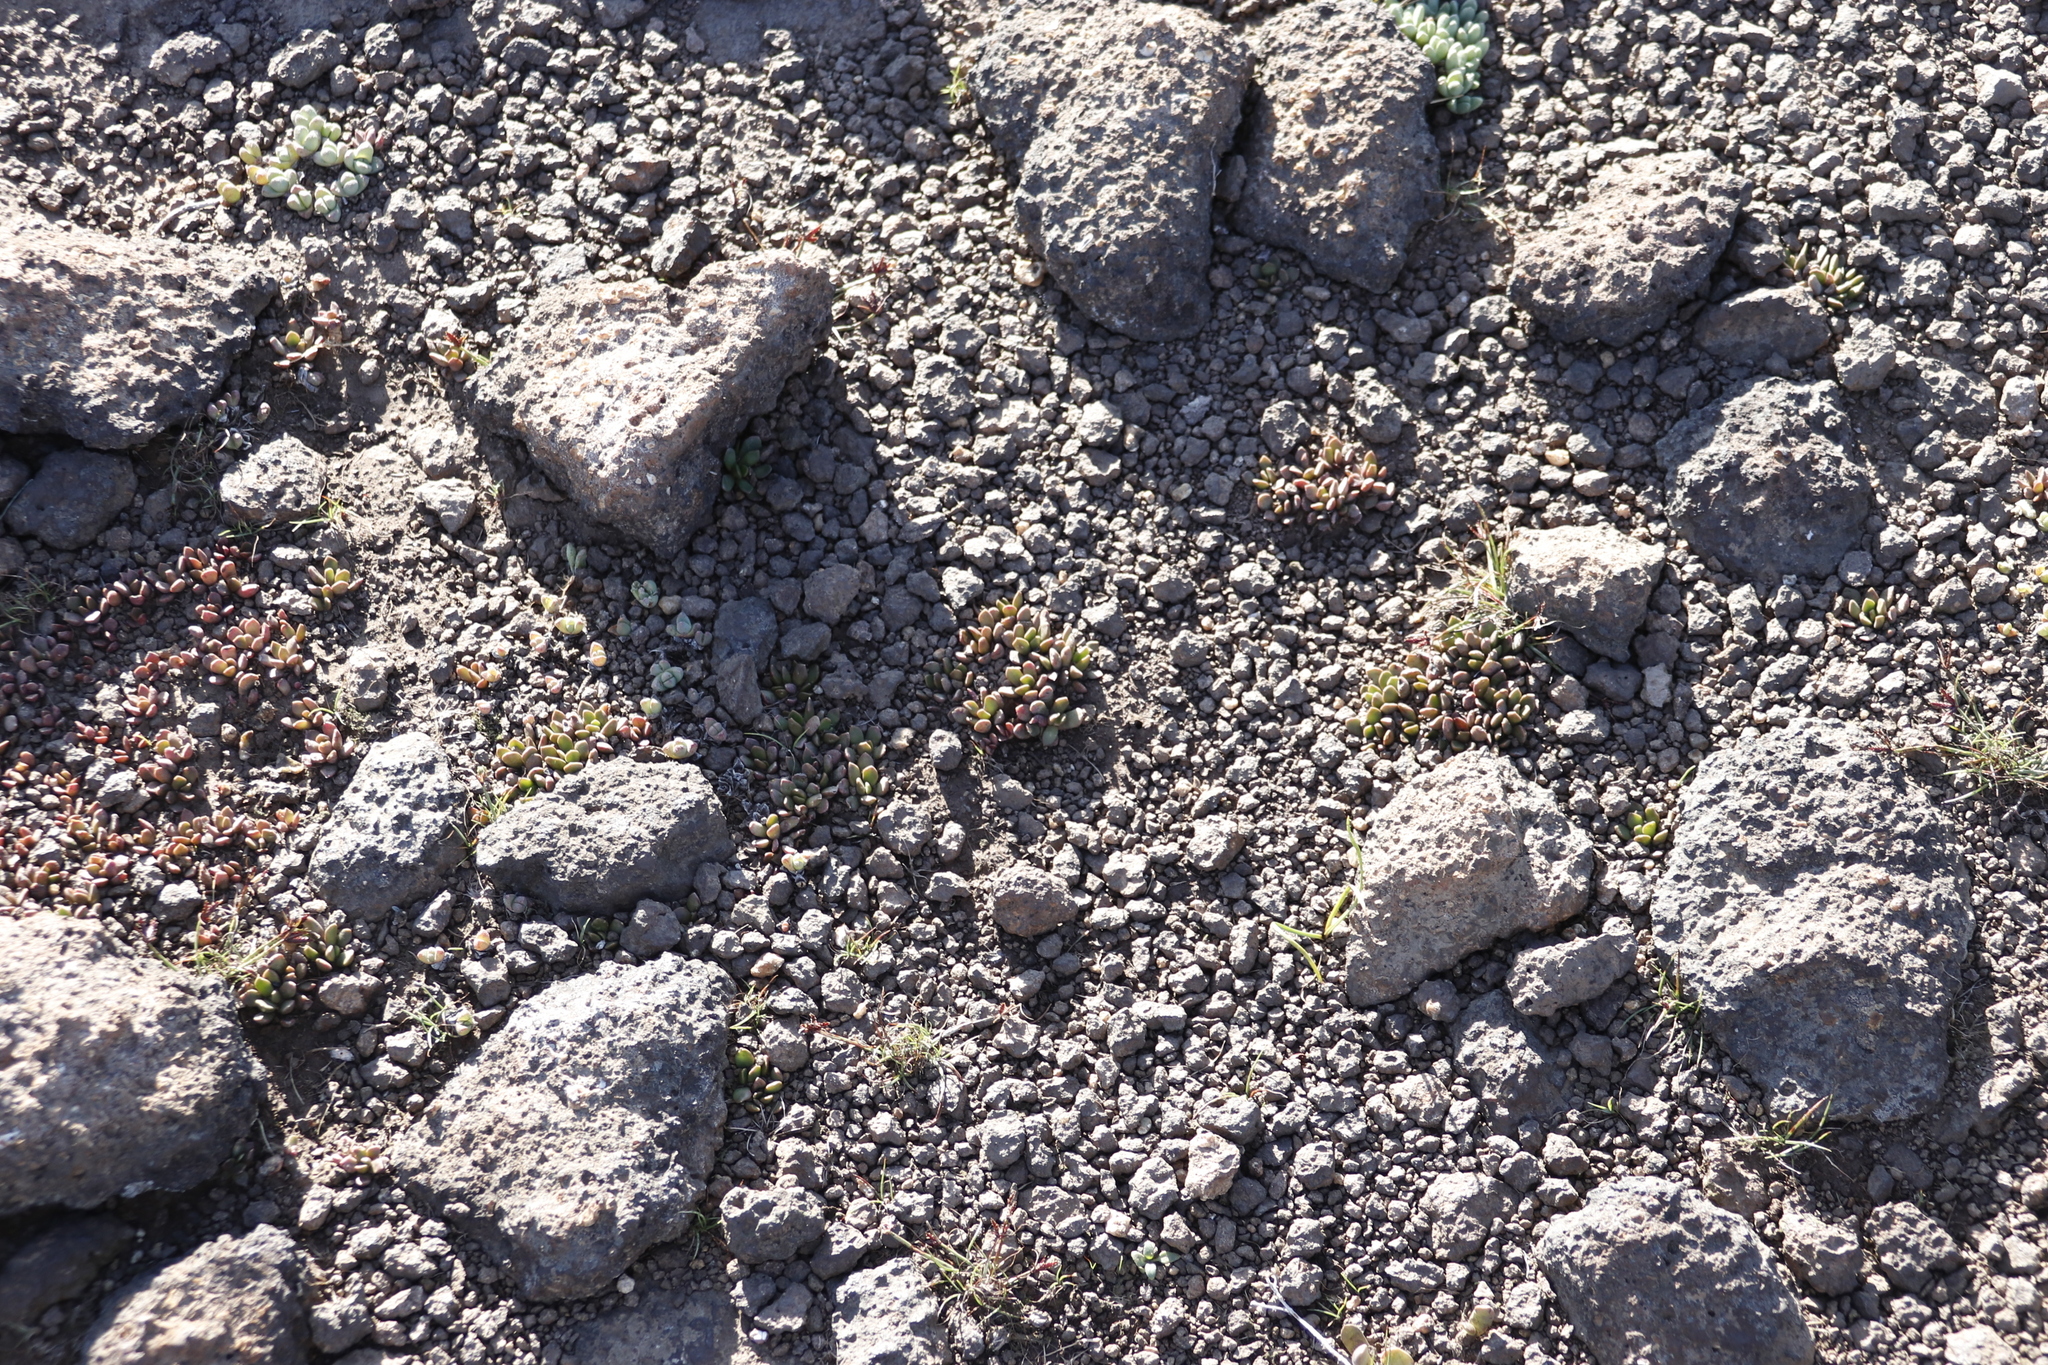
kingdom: Plantae
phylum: Tracheophyta
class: Magnoliopsida
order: Saxifragales
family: Crassulaceae
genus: Sedum
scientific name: Sedum atratum
